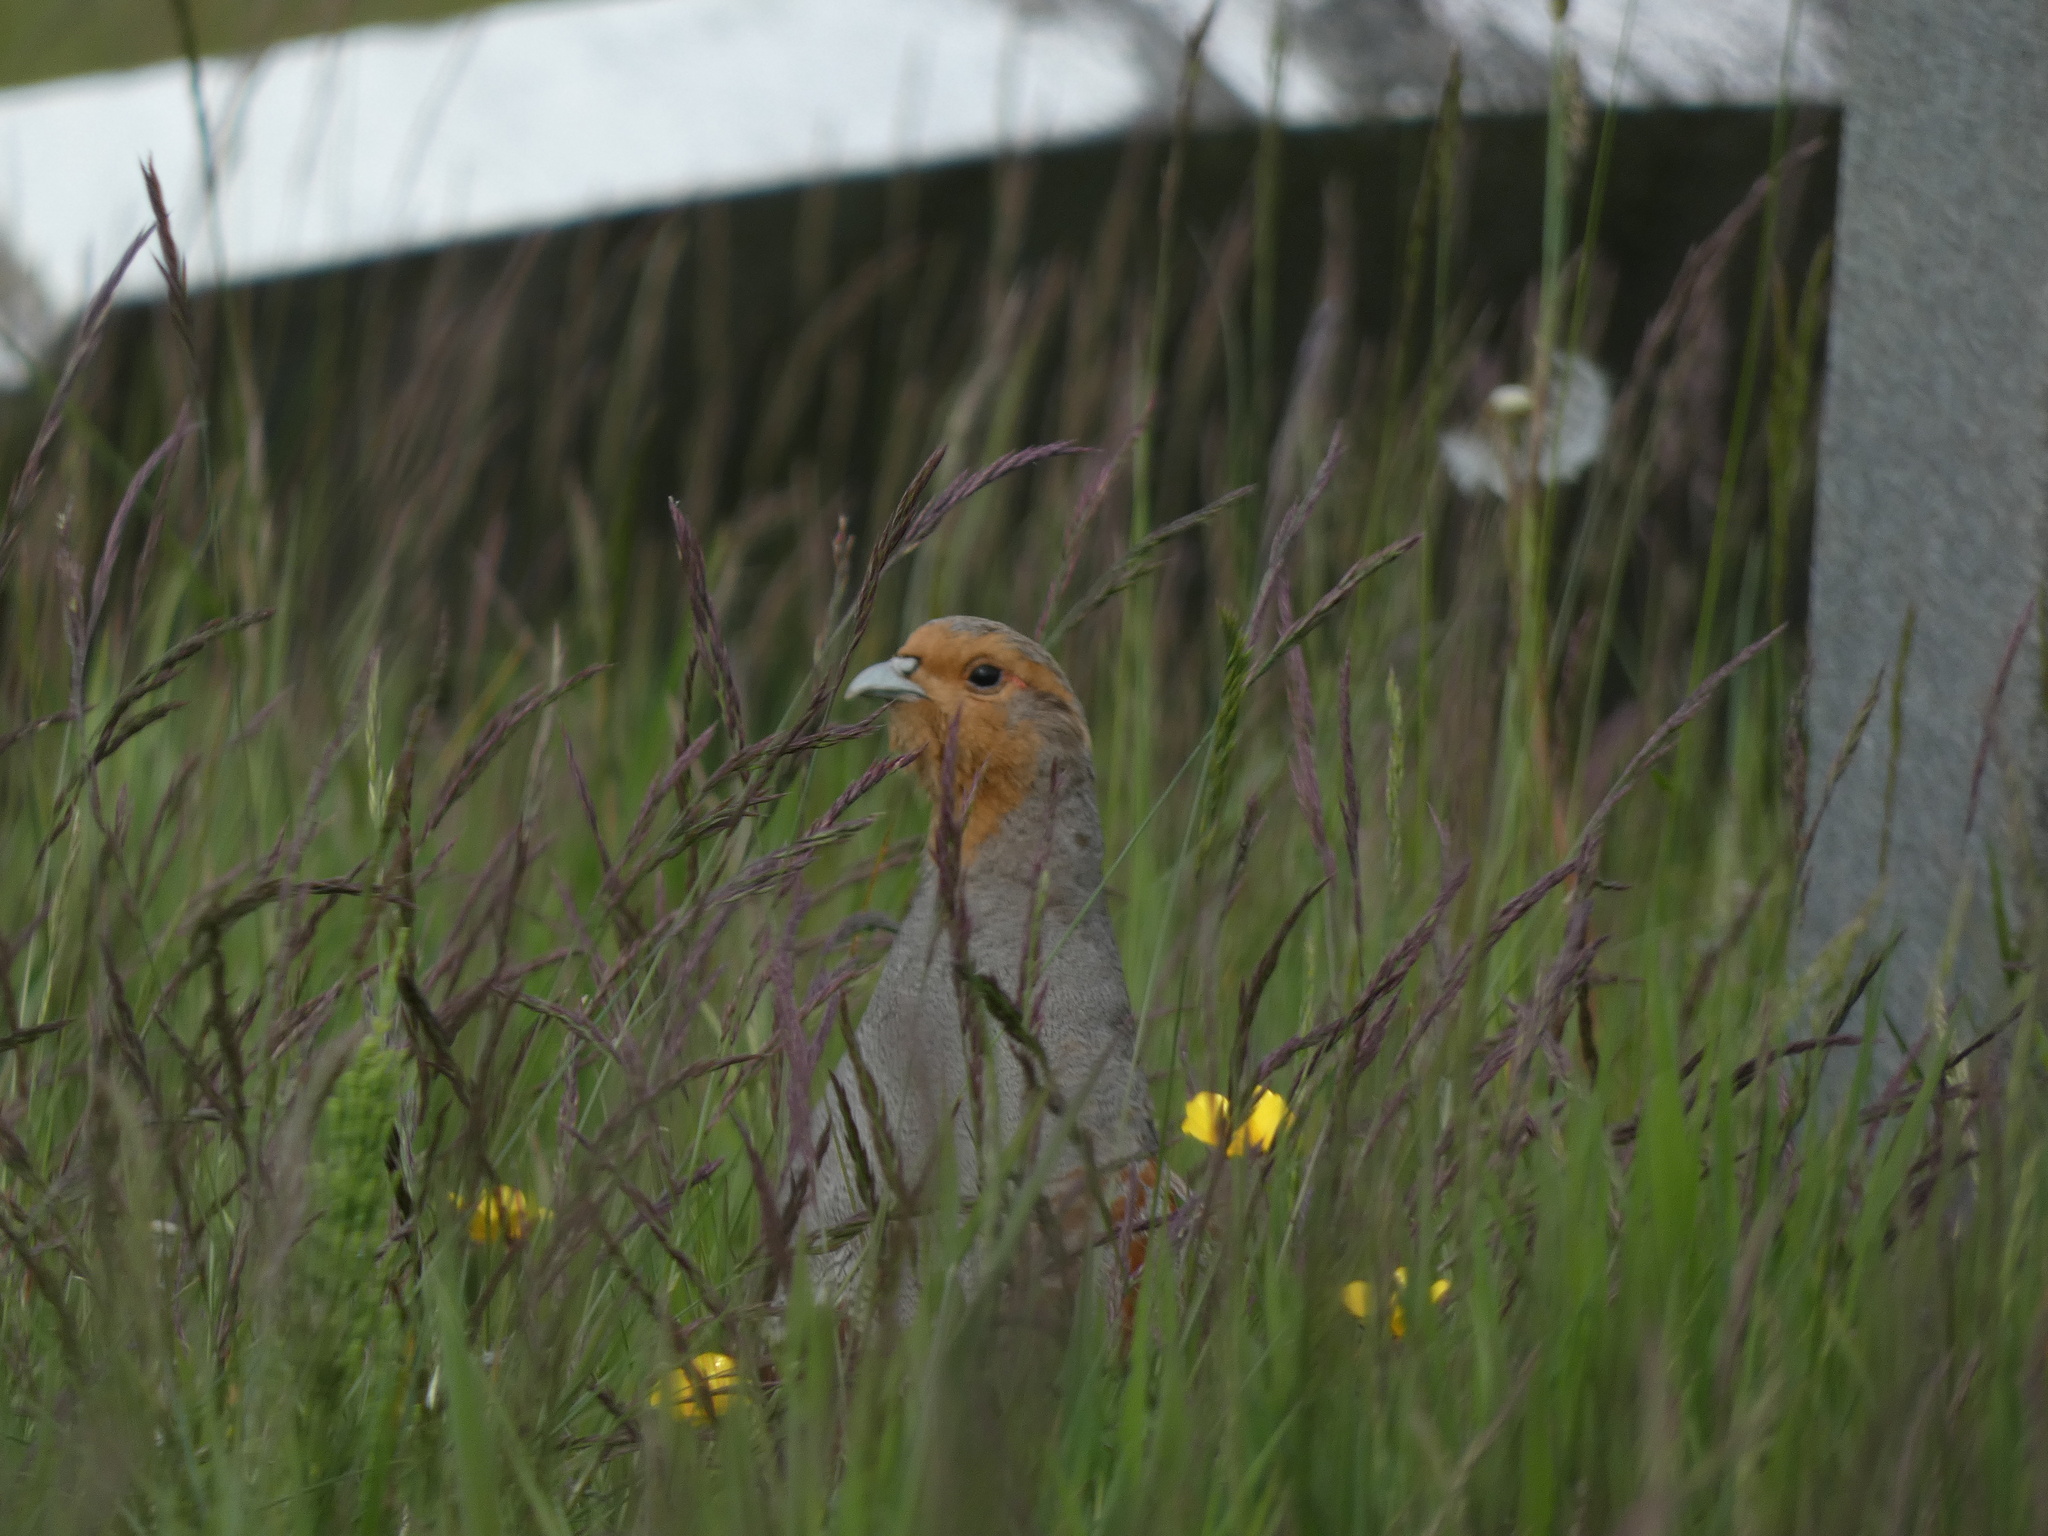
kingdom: Animalia
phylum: Chordata
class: Aves
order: Galliformes
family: Phasianidae
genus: Perdix
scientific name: Perdix perdix
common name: Grey partridge
